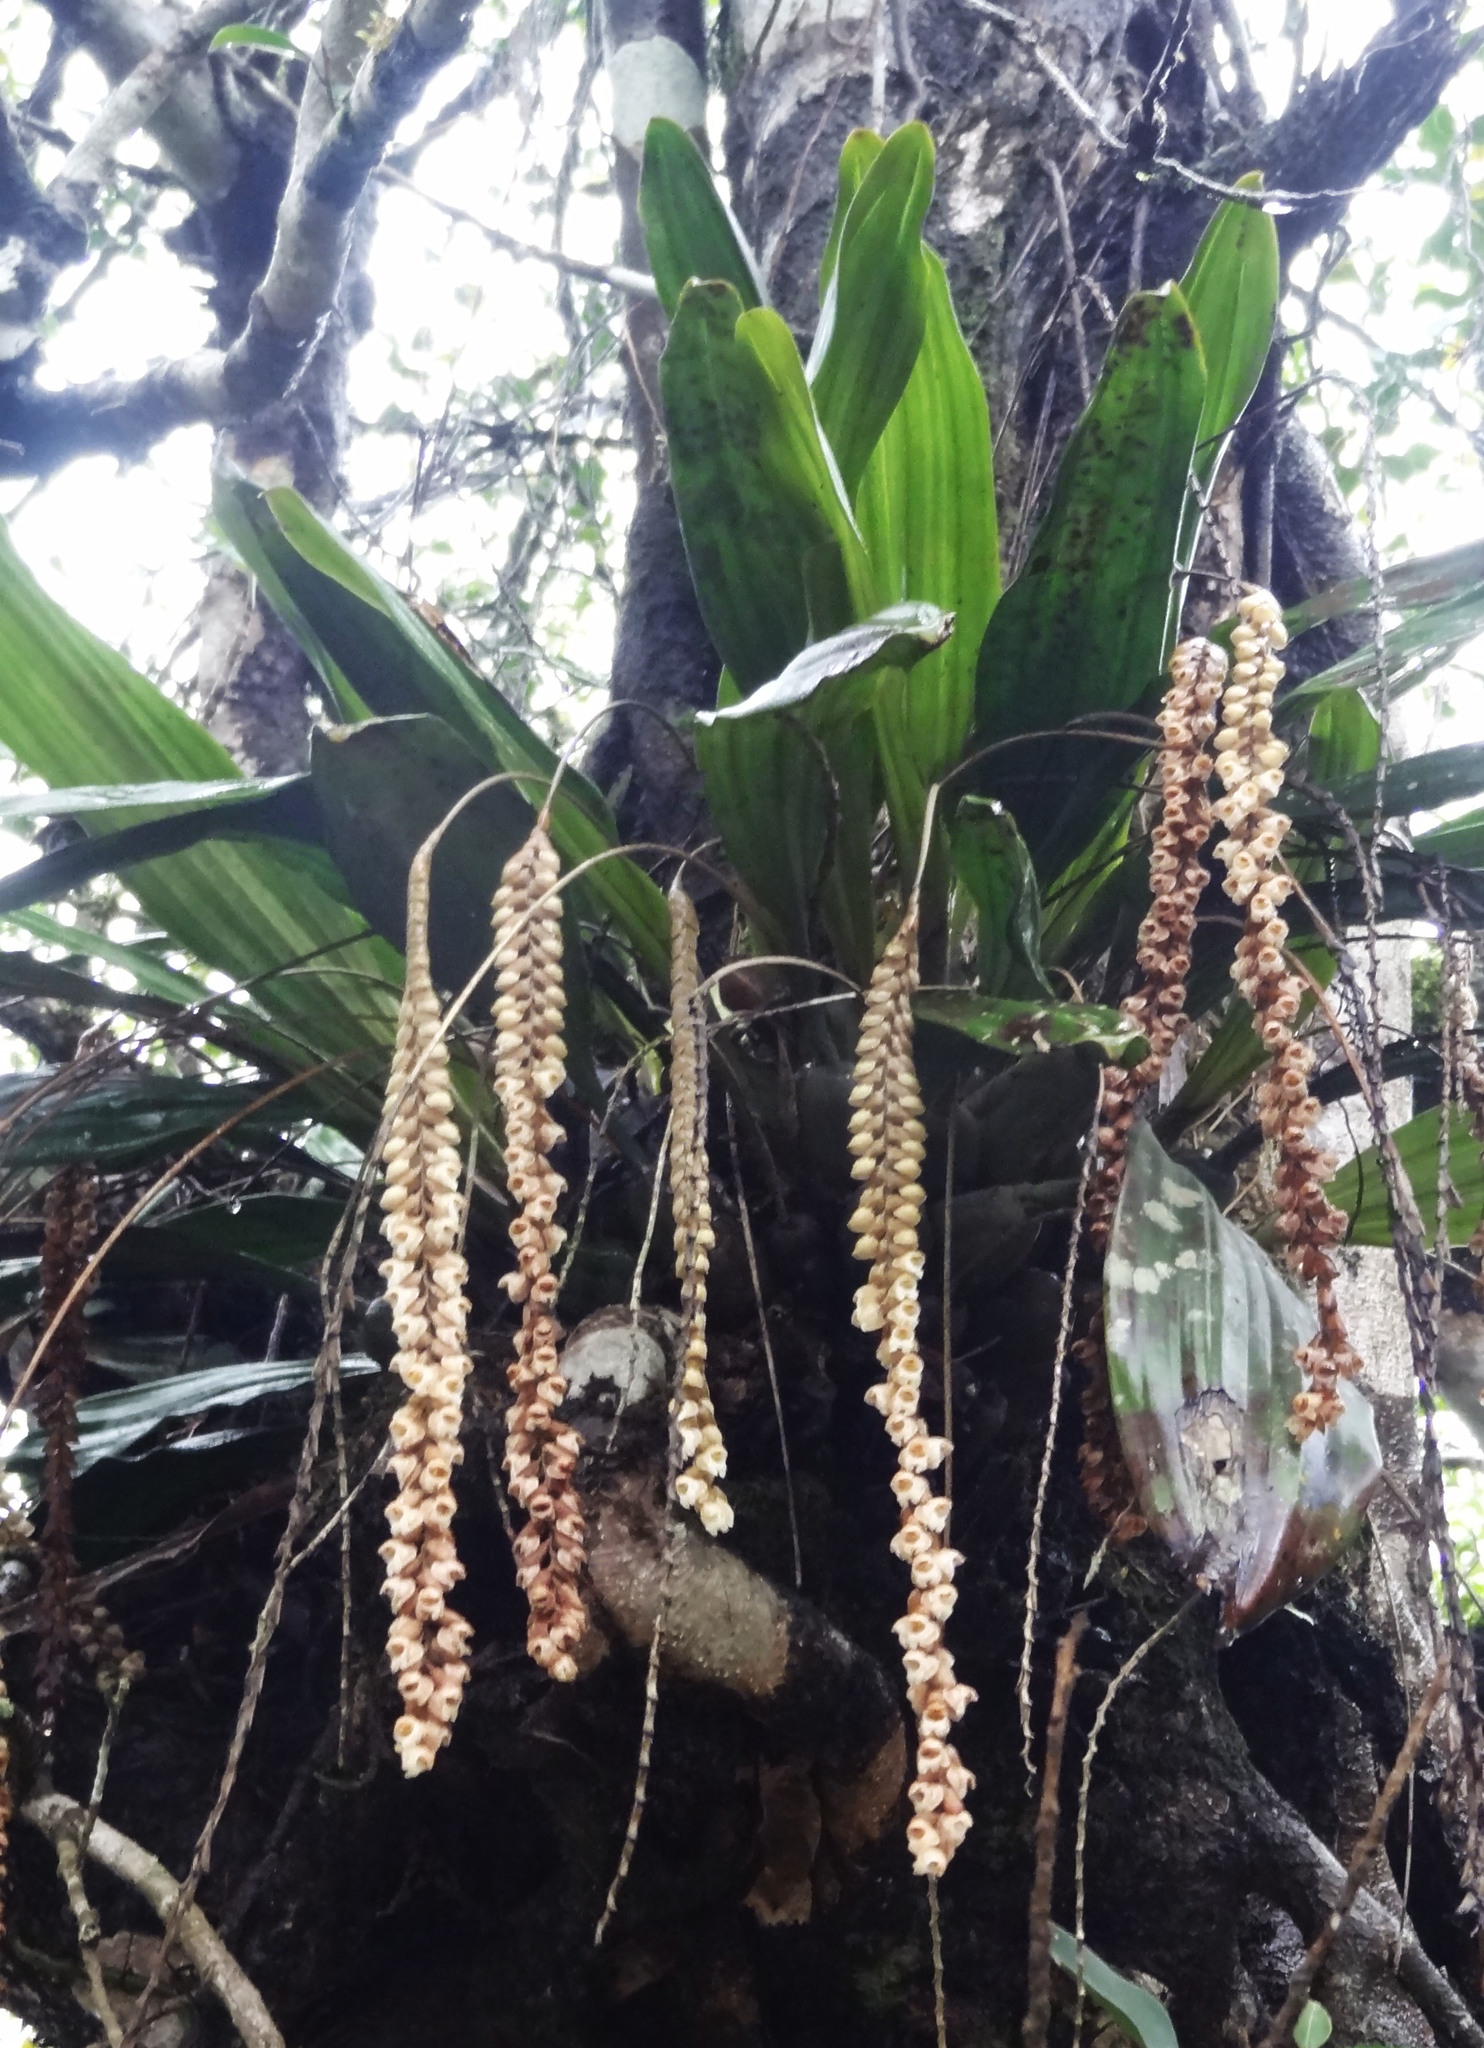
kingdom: Plantae
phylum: Tracheophyta
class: Liliopsida
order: Asparagales
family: Orchidaceae
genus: Coelogyne
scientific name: Coelogyne pallida
